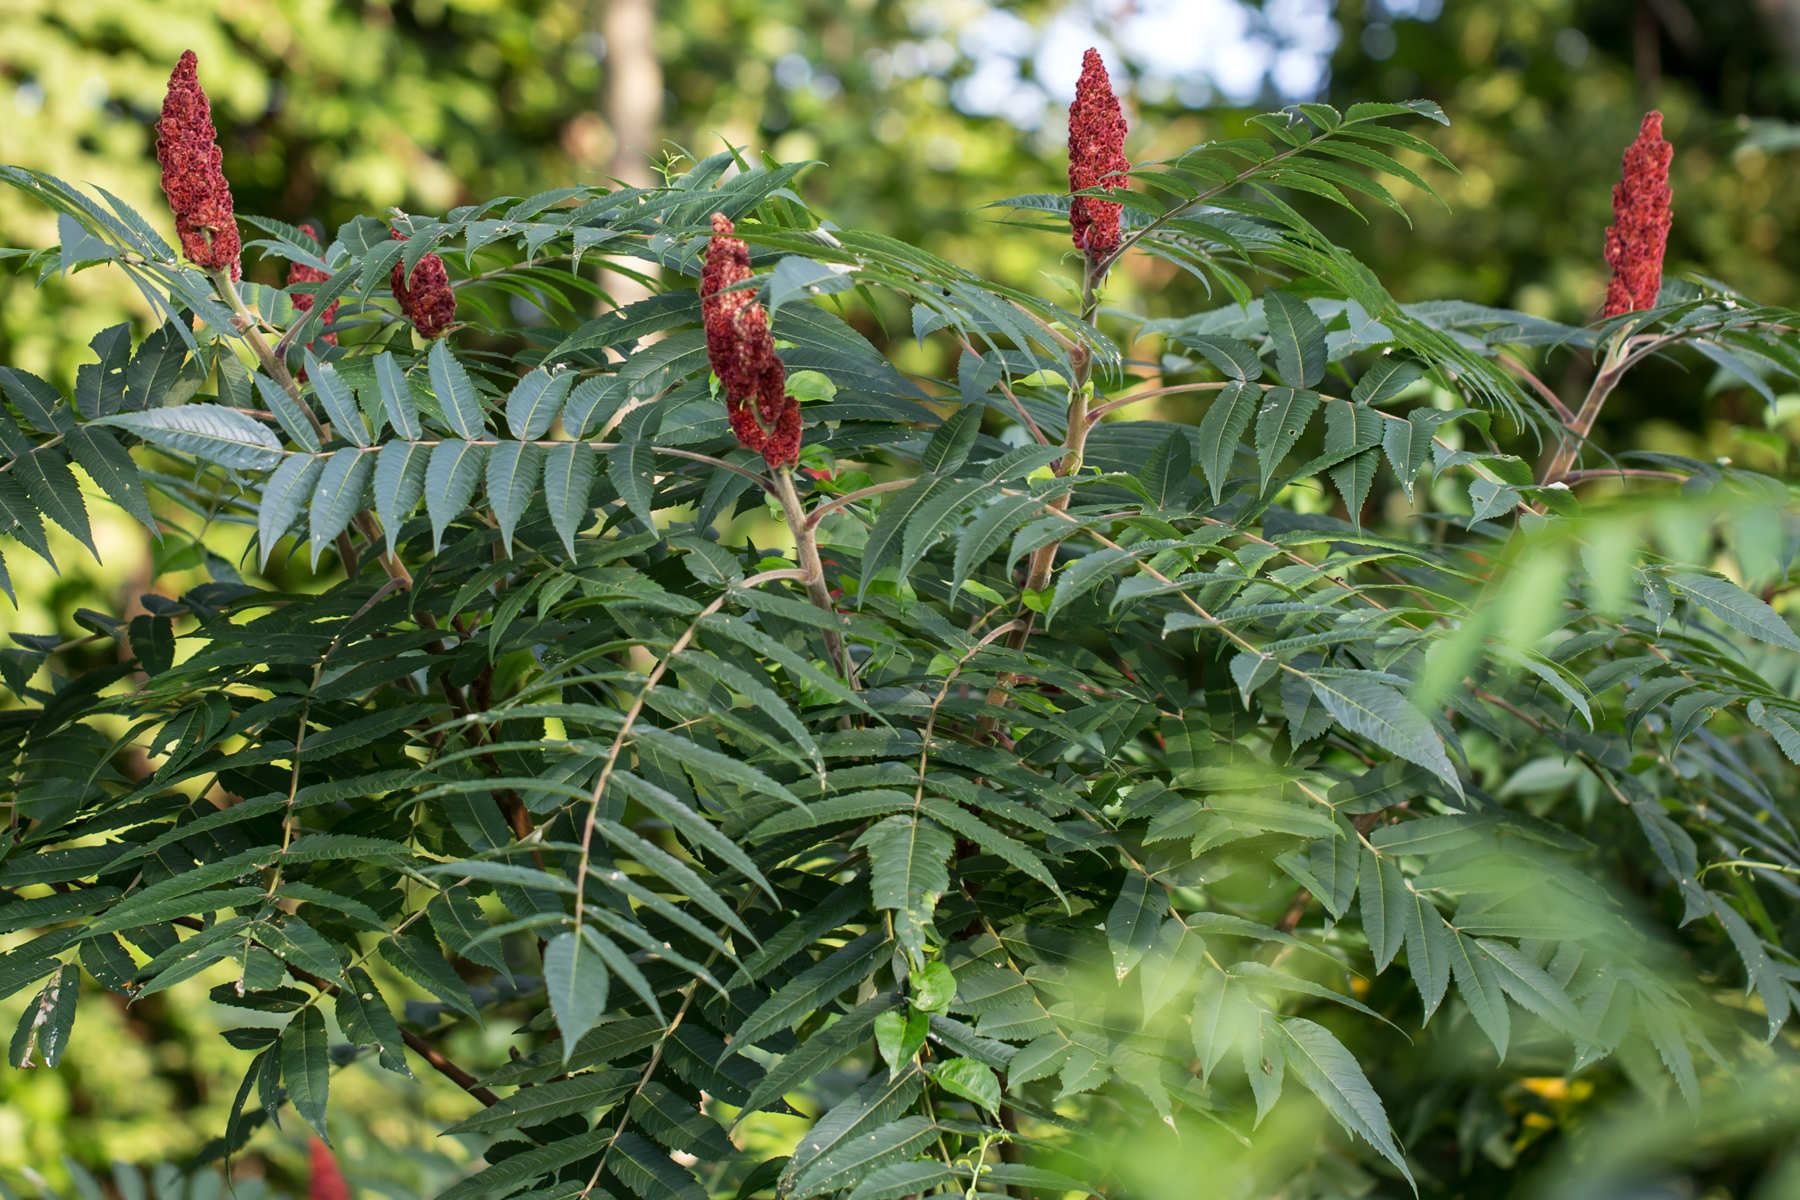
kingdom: Plantae
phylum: Tracheophyta
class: Magnoliopsida
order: Sapindales
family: Anacardiaceae
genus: Rhus
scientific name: Rhus typhina
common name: Staghorn sumac
